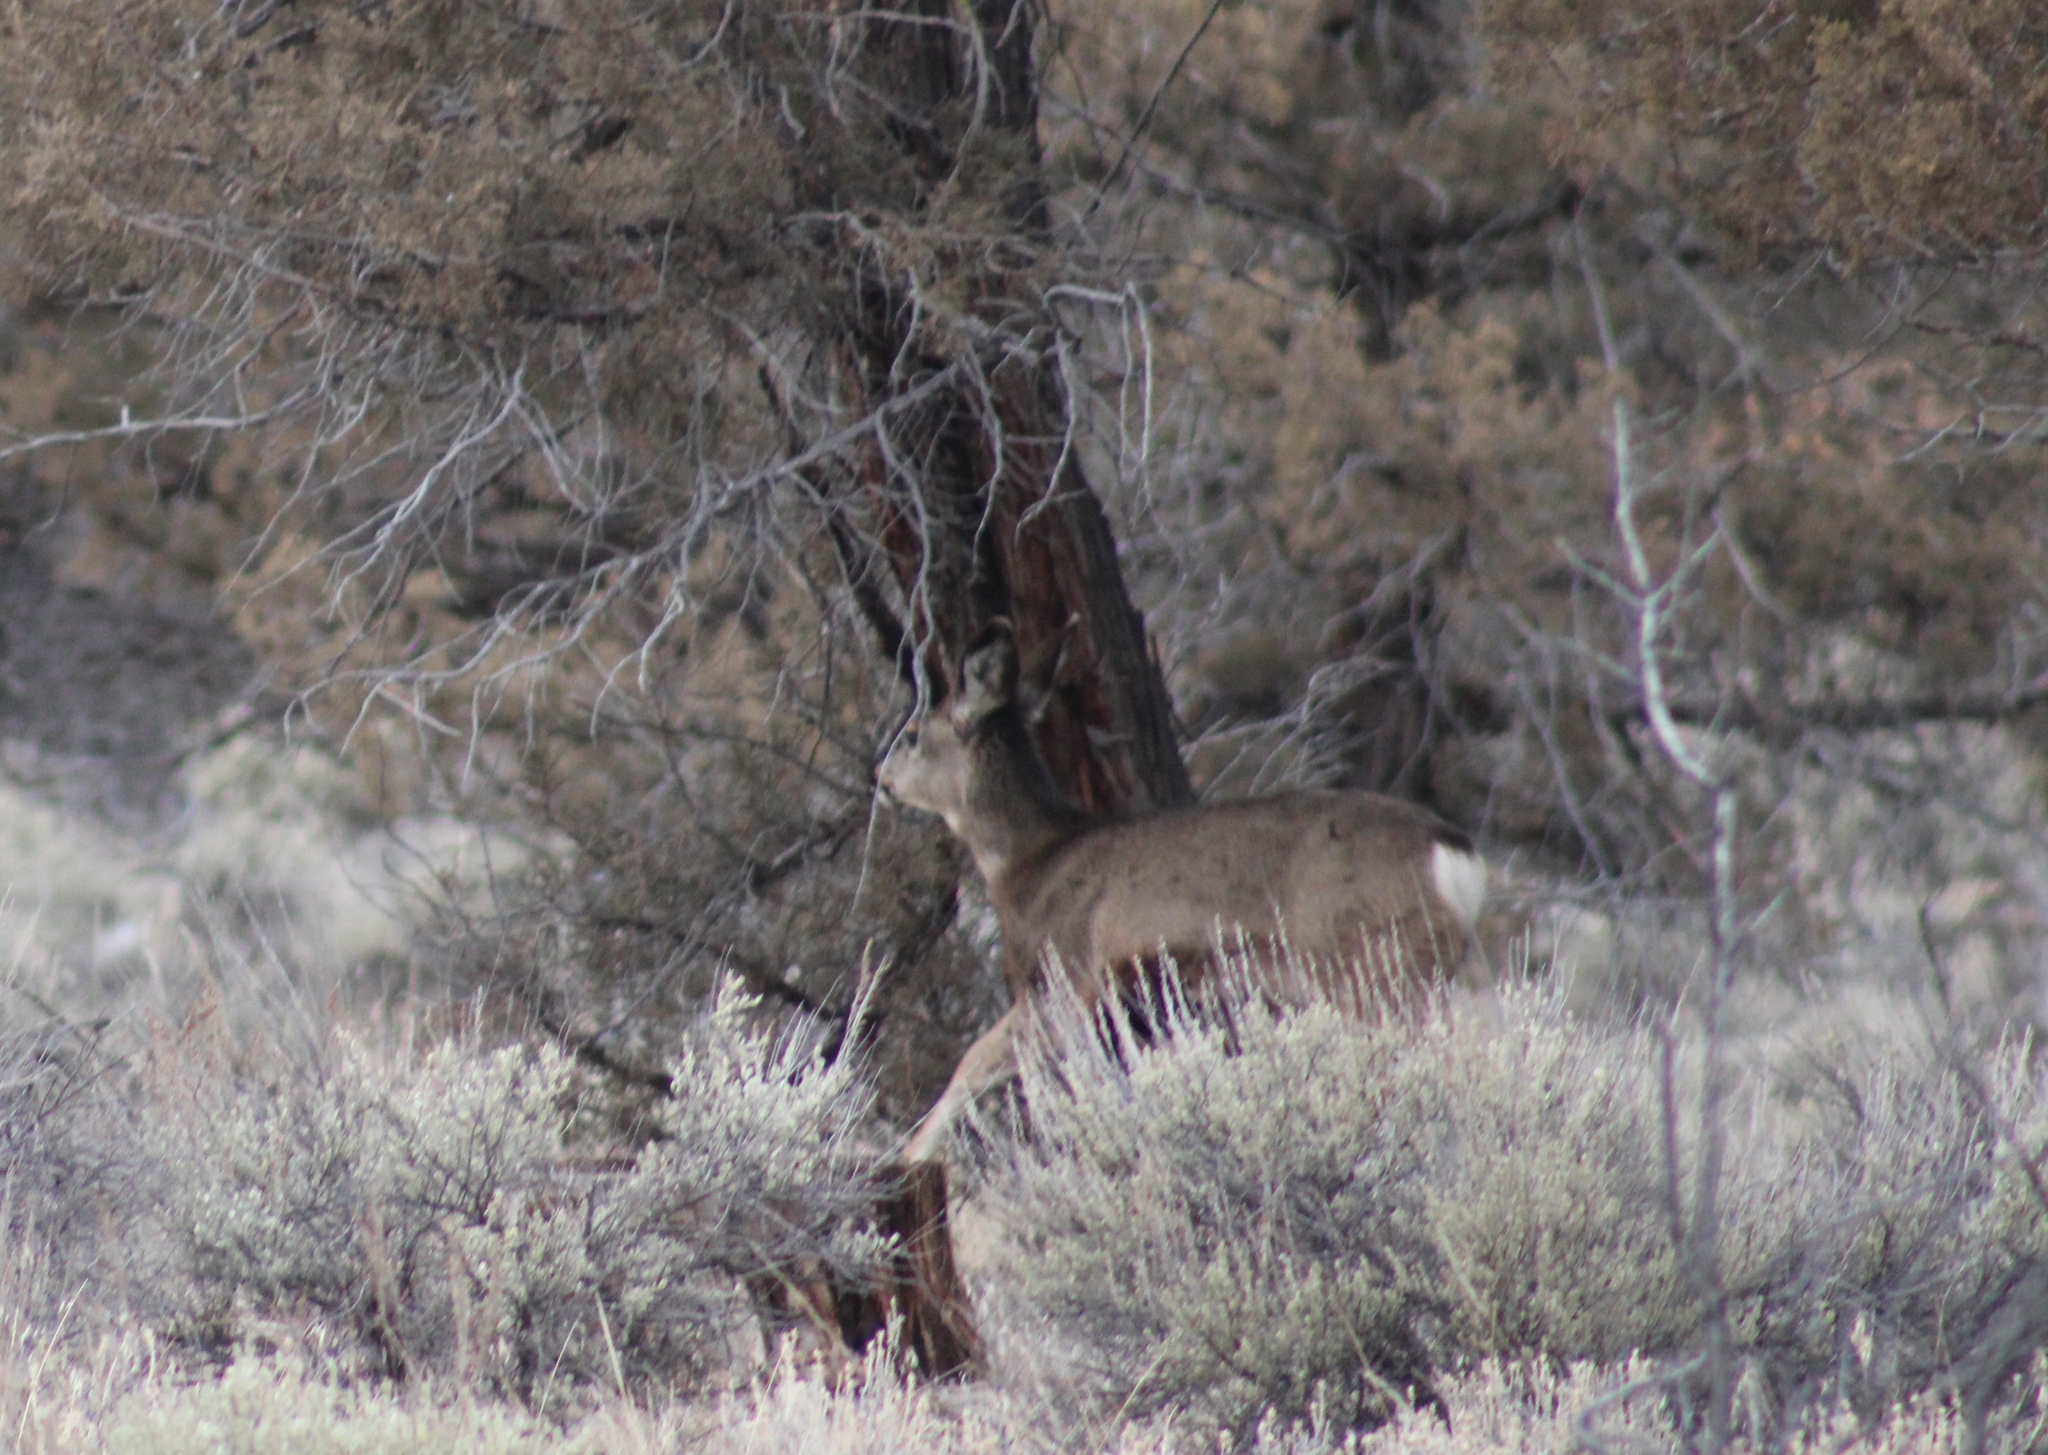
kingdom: Animalia
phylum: Chordata
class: Mammalia
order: Artiodactyla
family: Cervidae
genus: Odocoileus
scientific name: Odocoileus hemionus
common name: Mule deer
